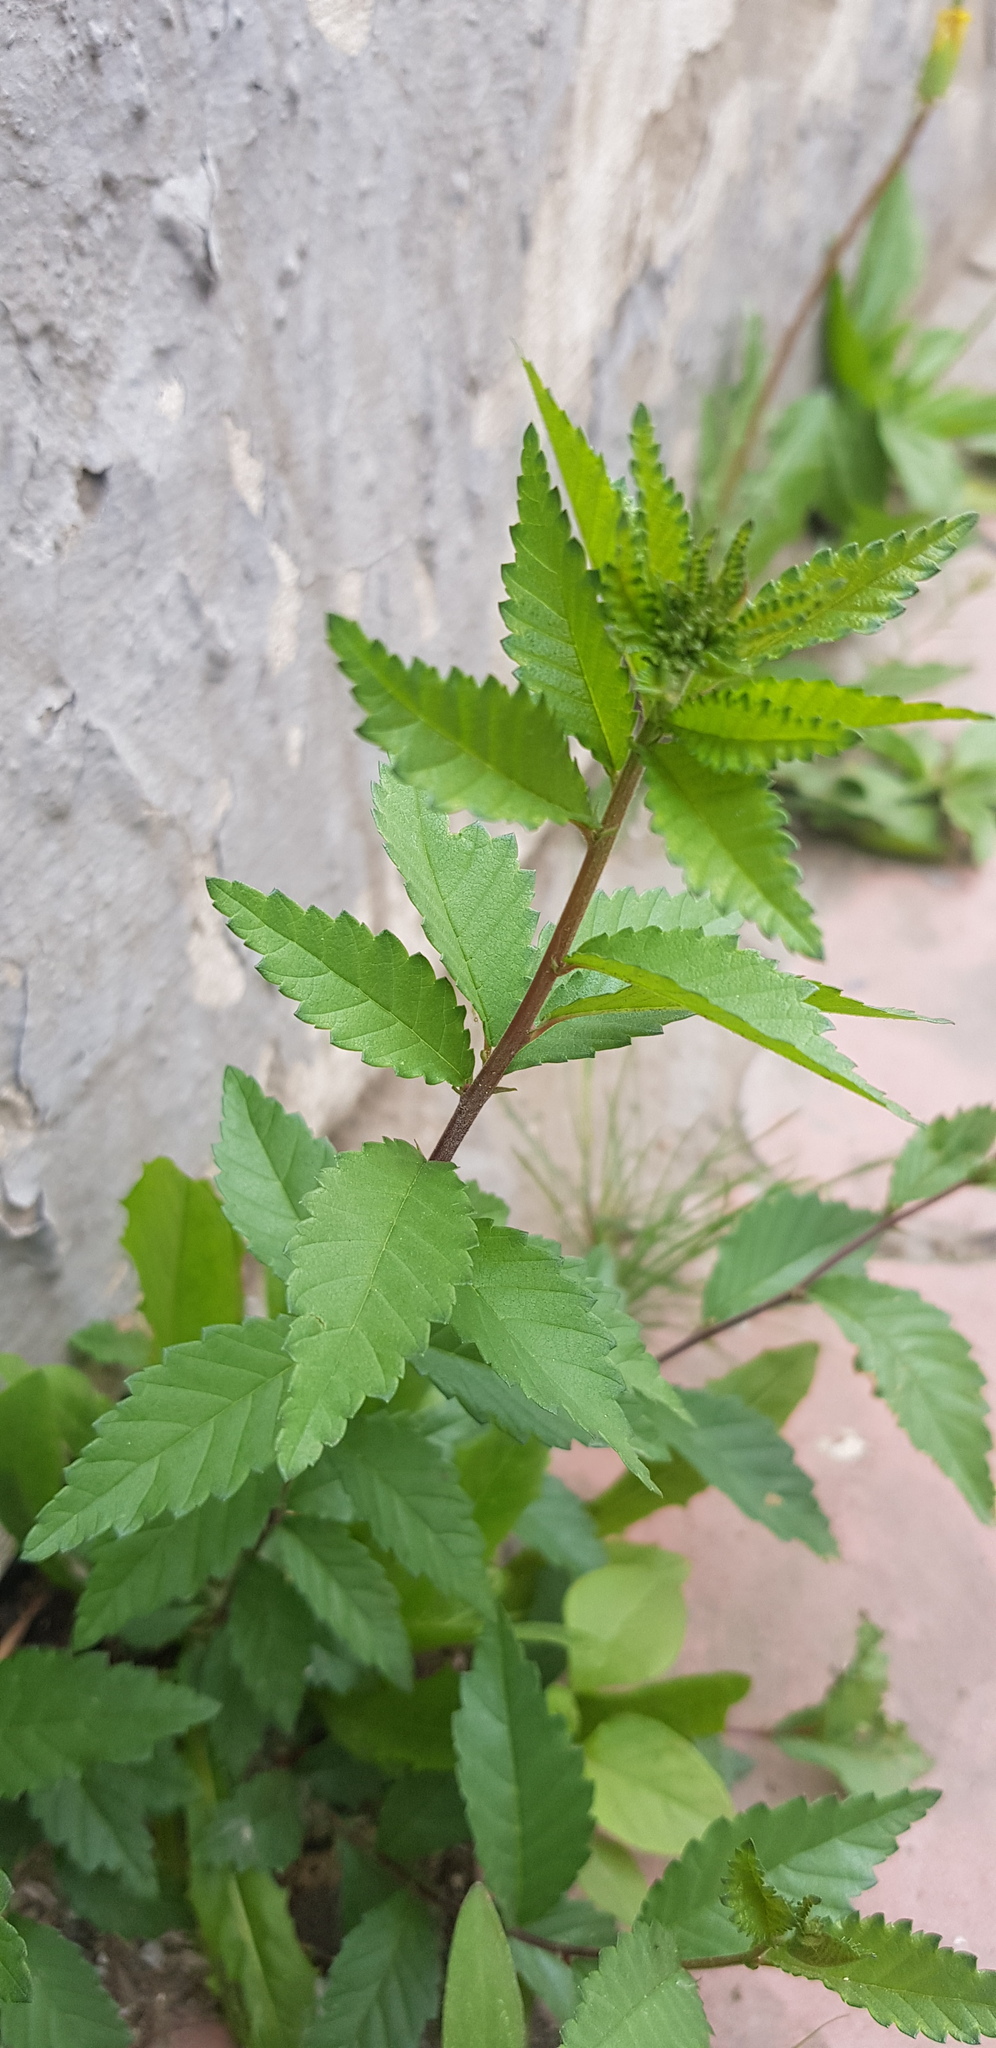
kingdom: Plantae
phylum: Tracheophyta
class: Magnoliopsida
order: Rosales
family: Ulmaceae
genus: Ulmus
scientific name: Ulmus pumila
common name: Siberian elm
